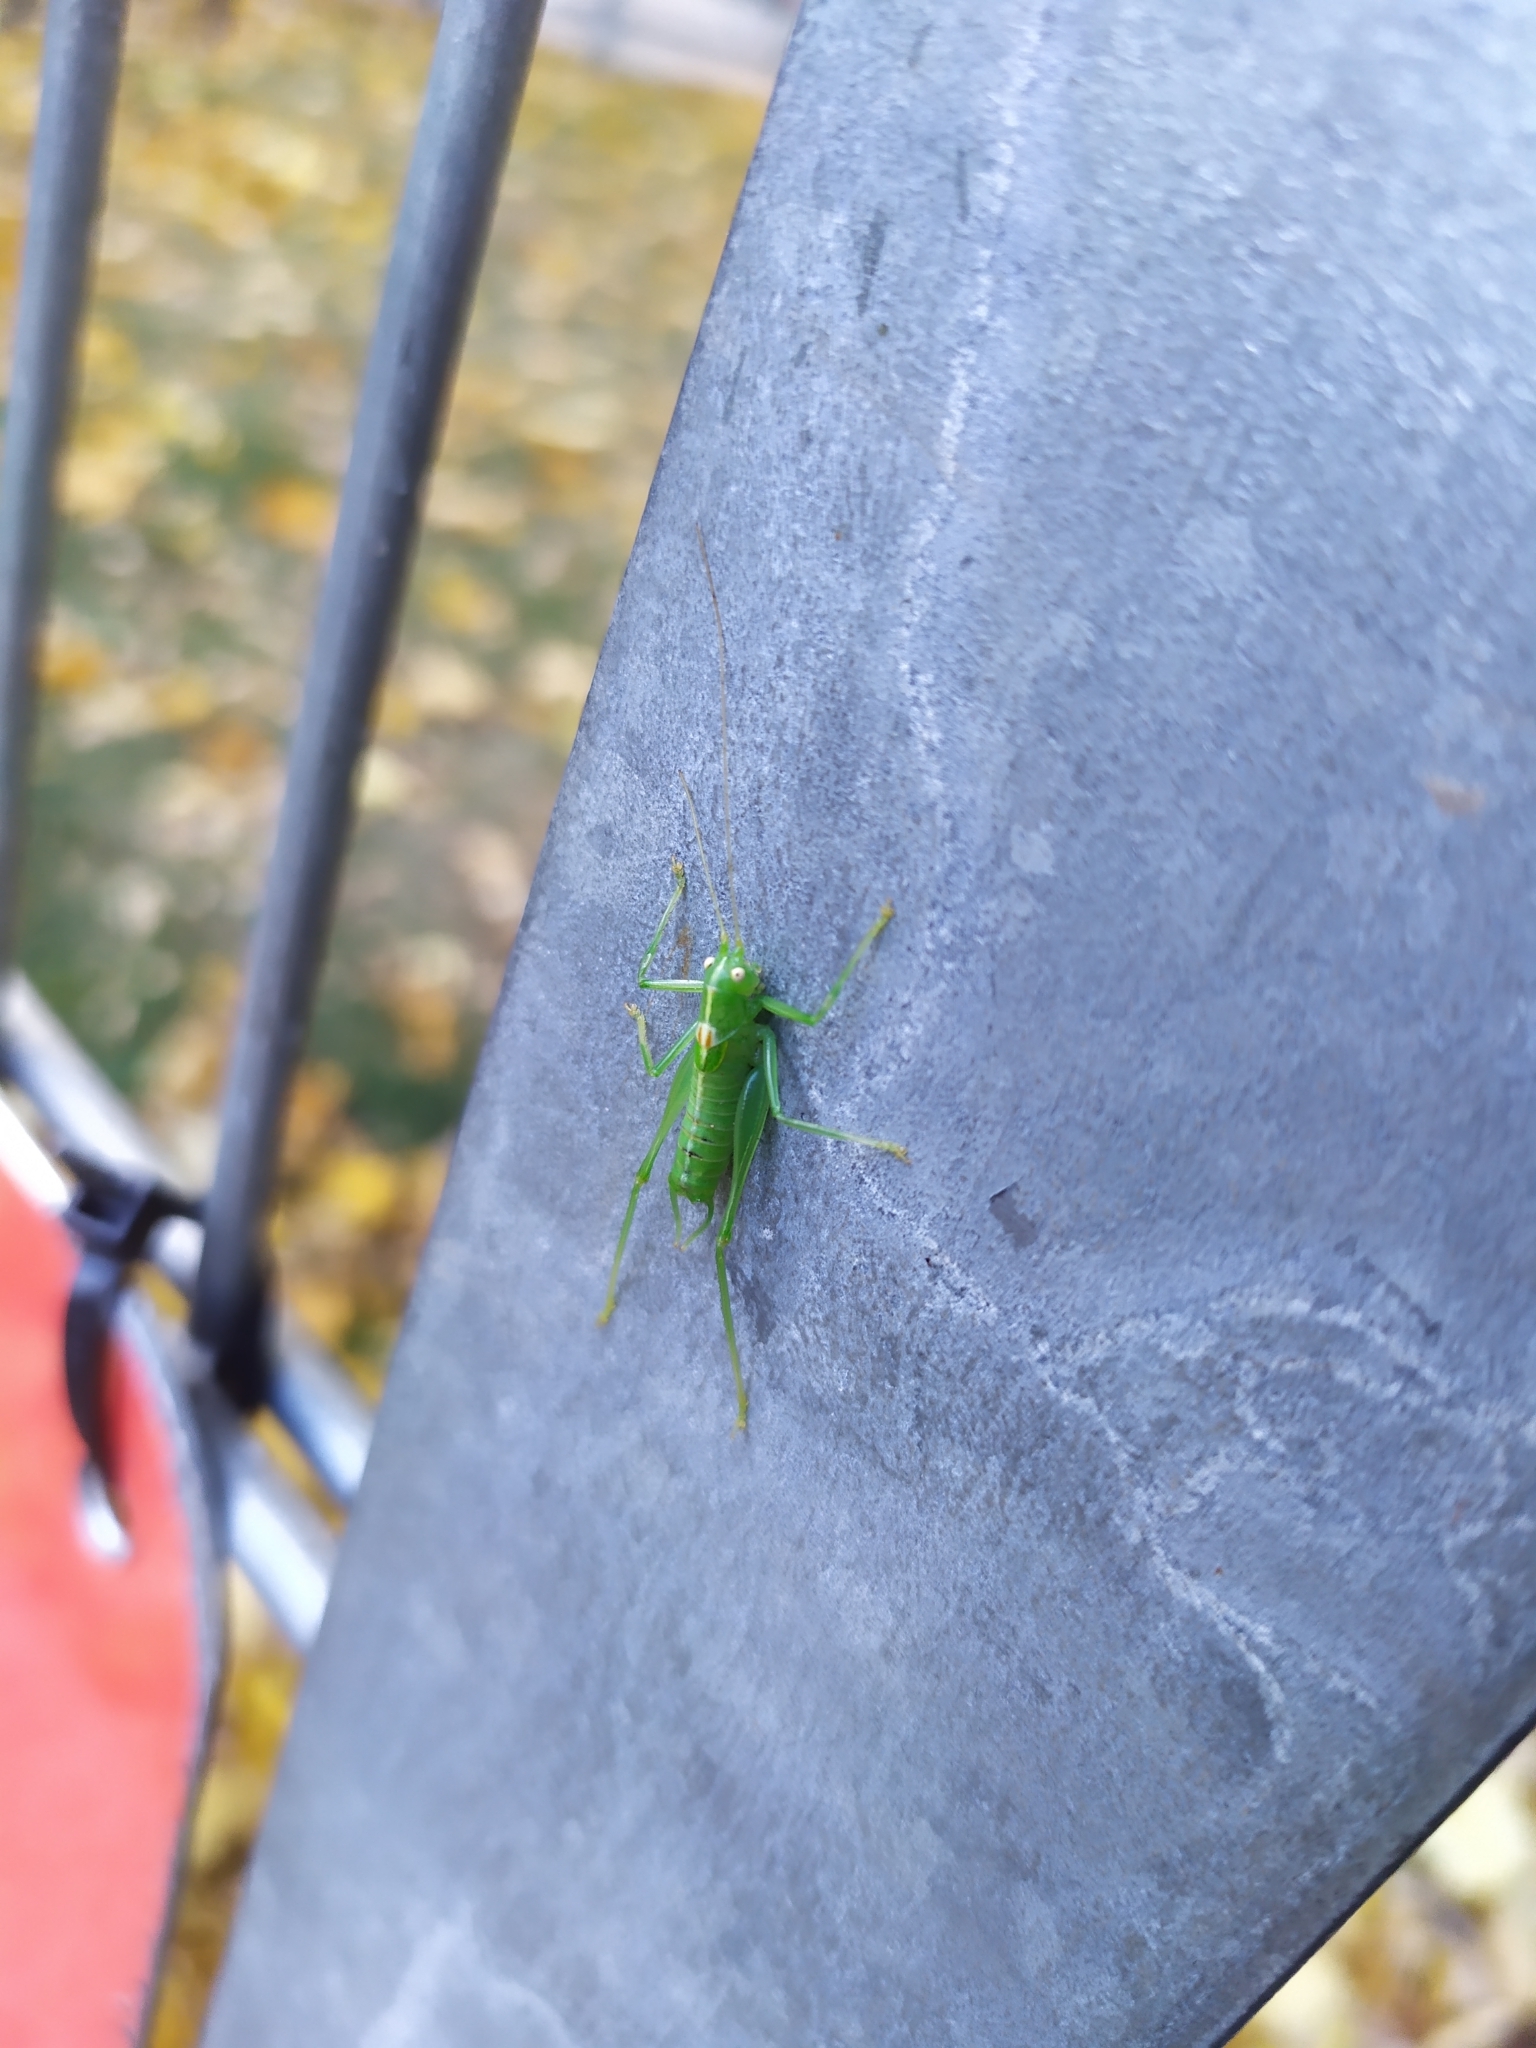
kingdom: Animalia
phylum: Arthropoda
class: Insecta
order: Orthoptera
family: Tettigoniidae
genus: Meconema
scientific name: Meconema meridionale
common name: Southern oak bush-cricket
